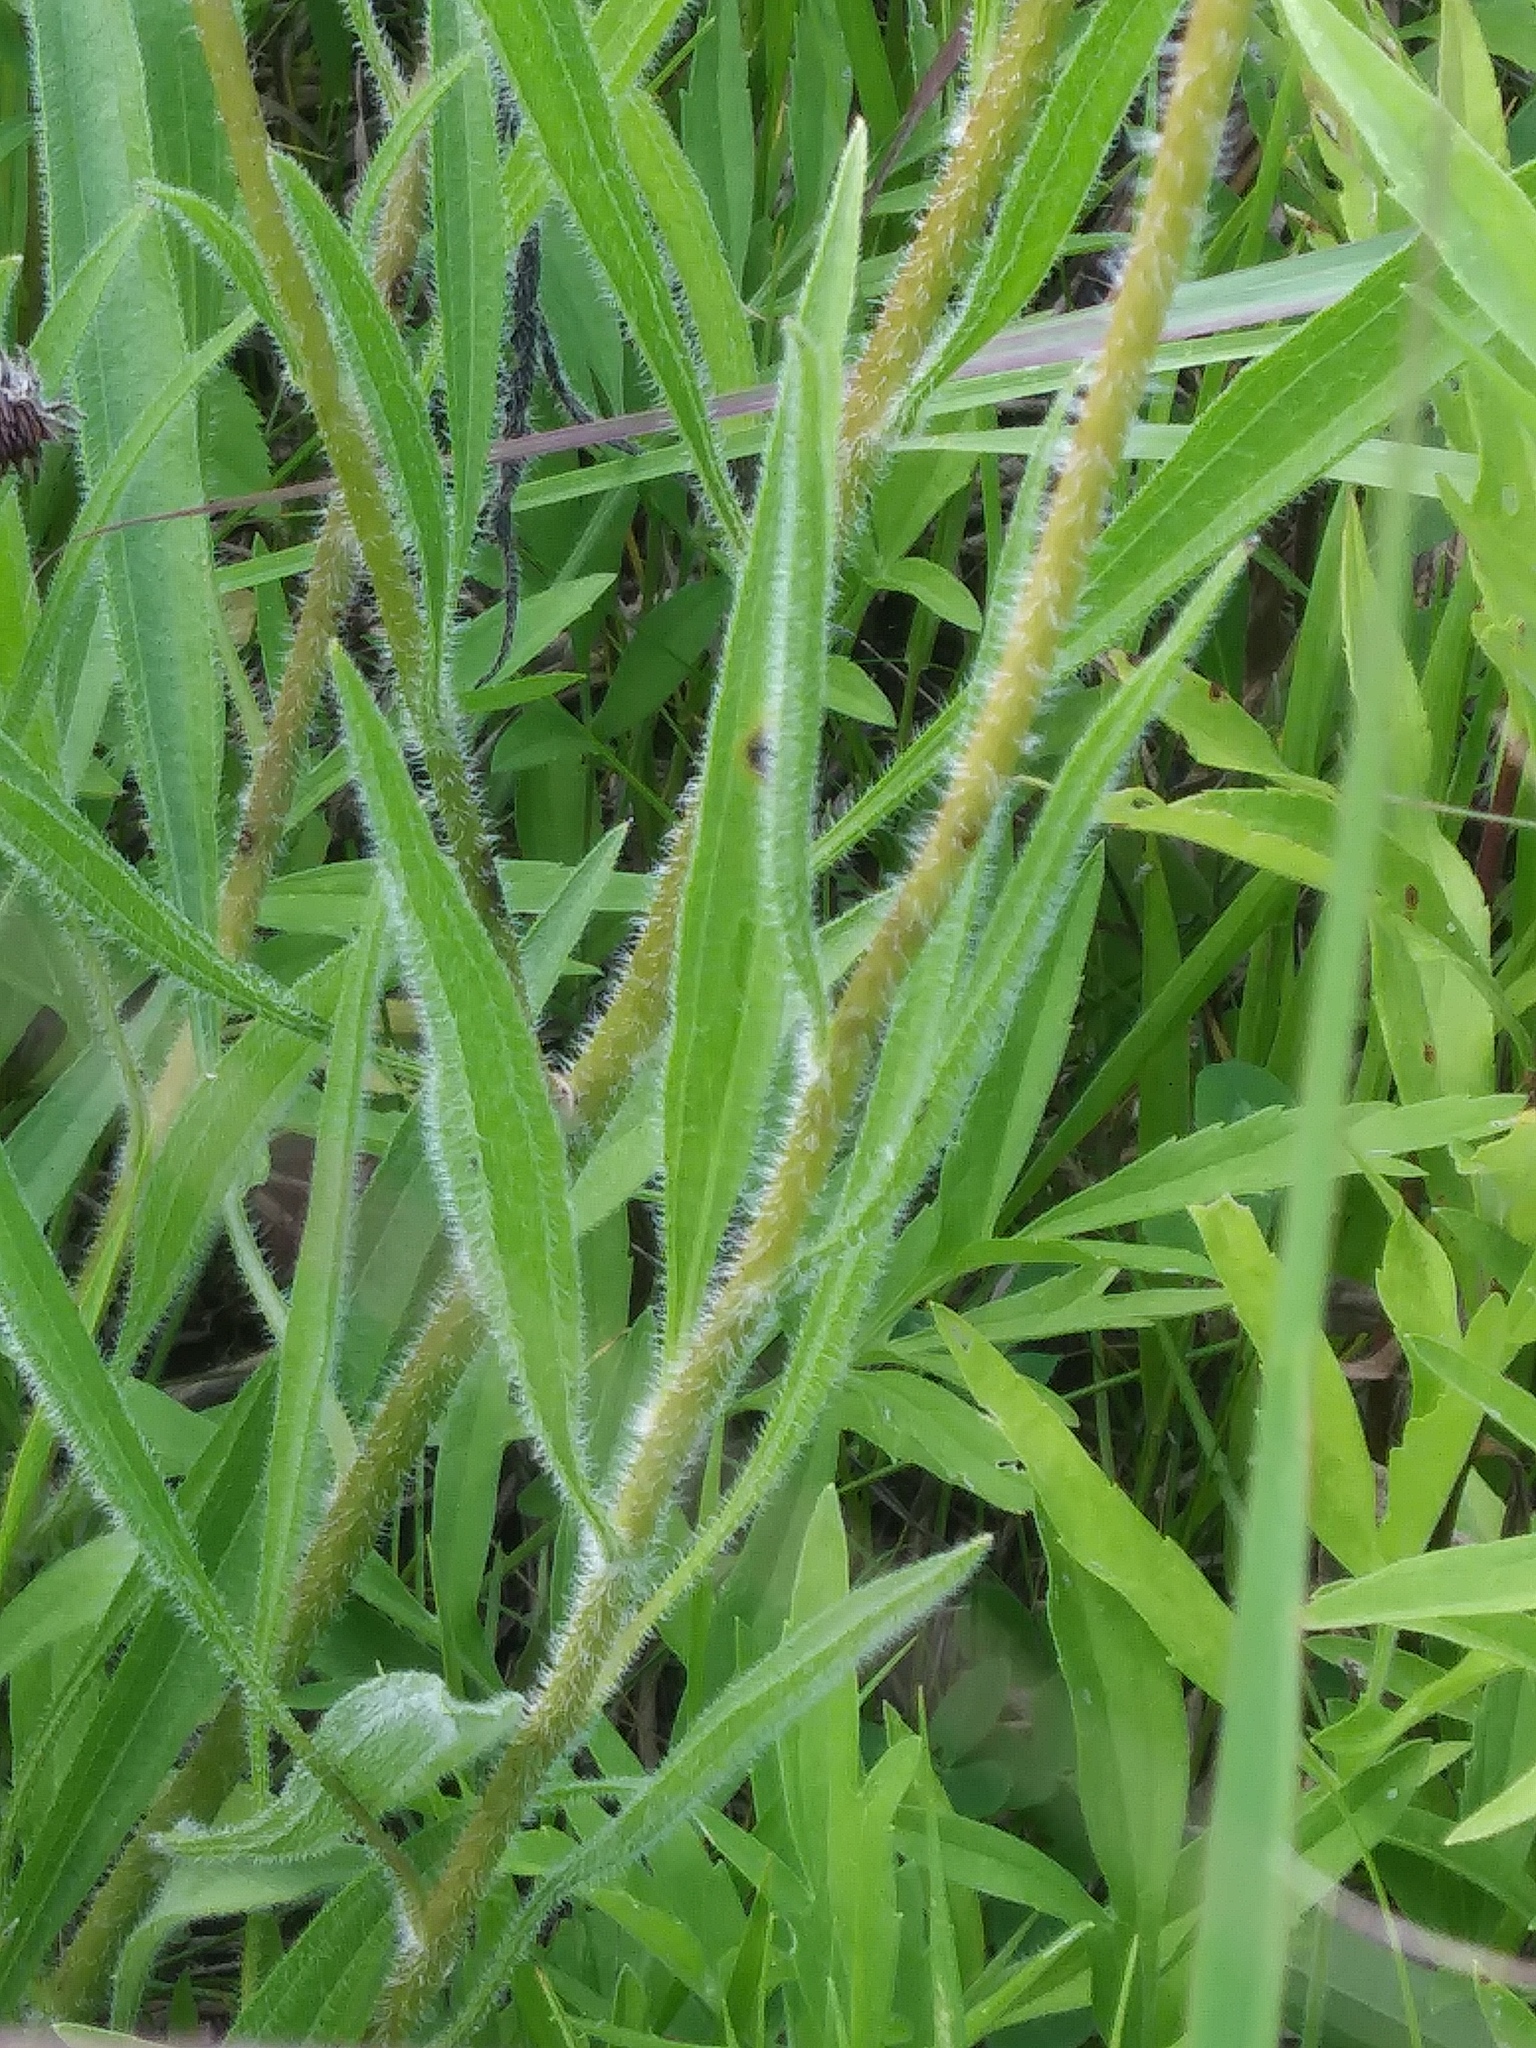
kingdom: Plantae
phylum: Tracheophyta
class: Magnoliopsida
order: Asterales
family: Asteraceae
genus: Echinacea
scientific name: Echinacea pallida
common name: Pale echinacea
